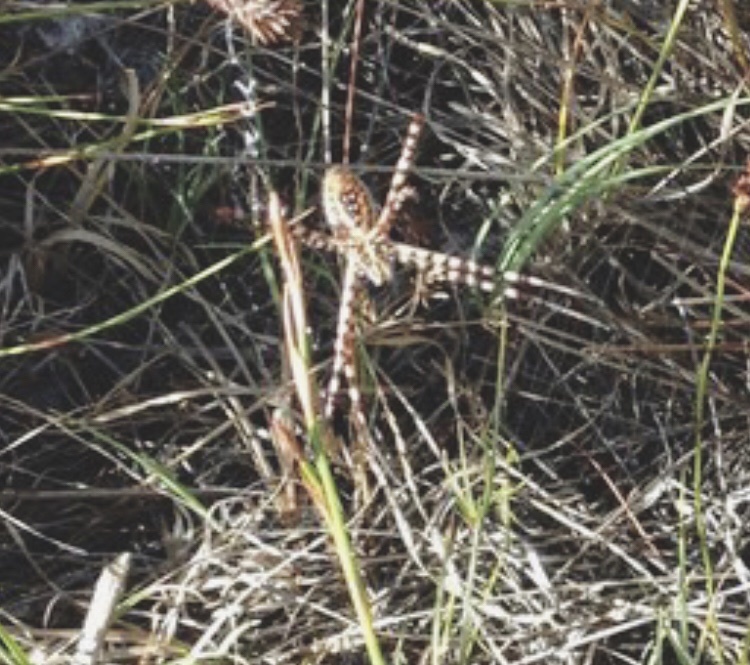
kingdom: Animalia
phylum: Arthropoda
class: Arachnida
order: Araneae
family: Araneidae
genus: Argiope
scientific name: Argiope trifasciata
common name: Banded garden spider
